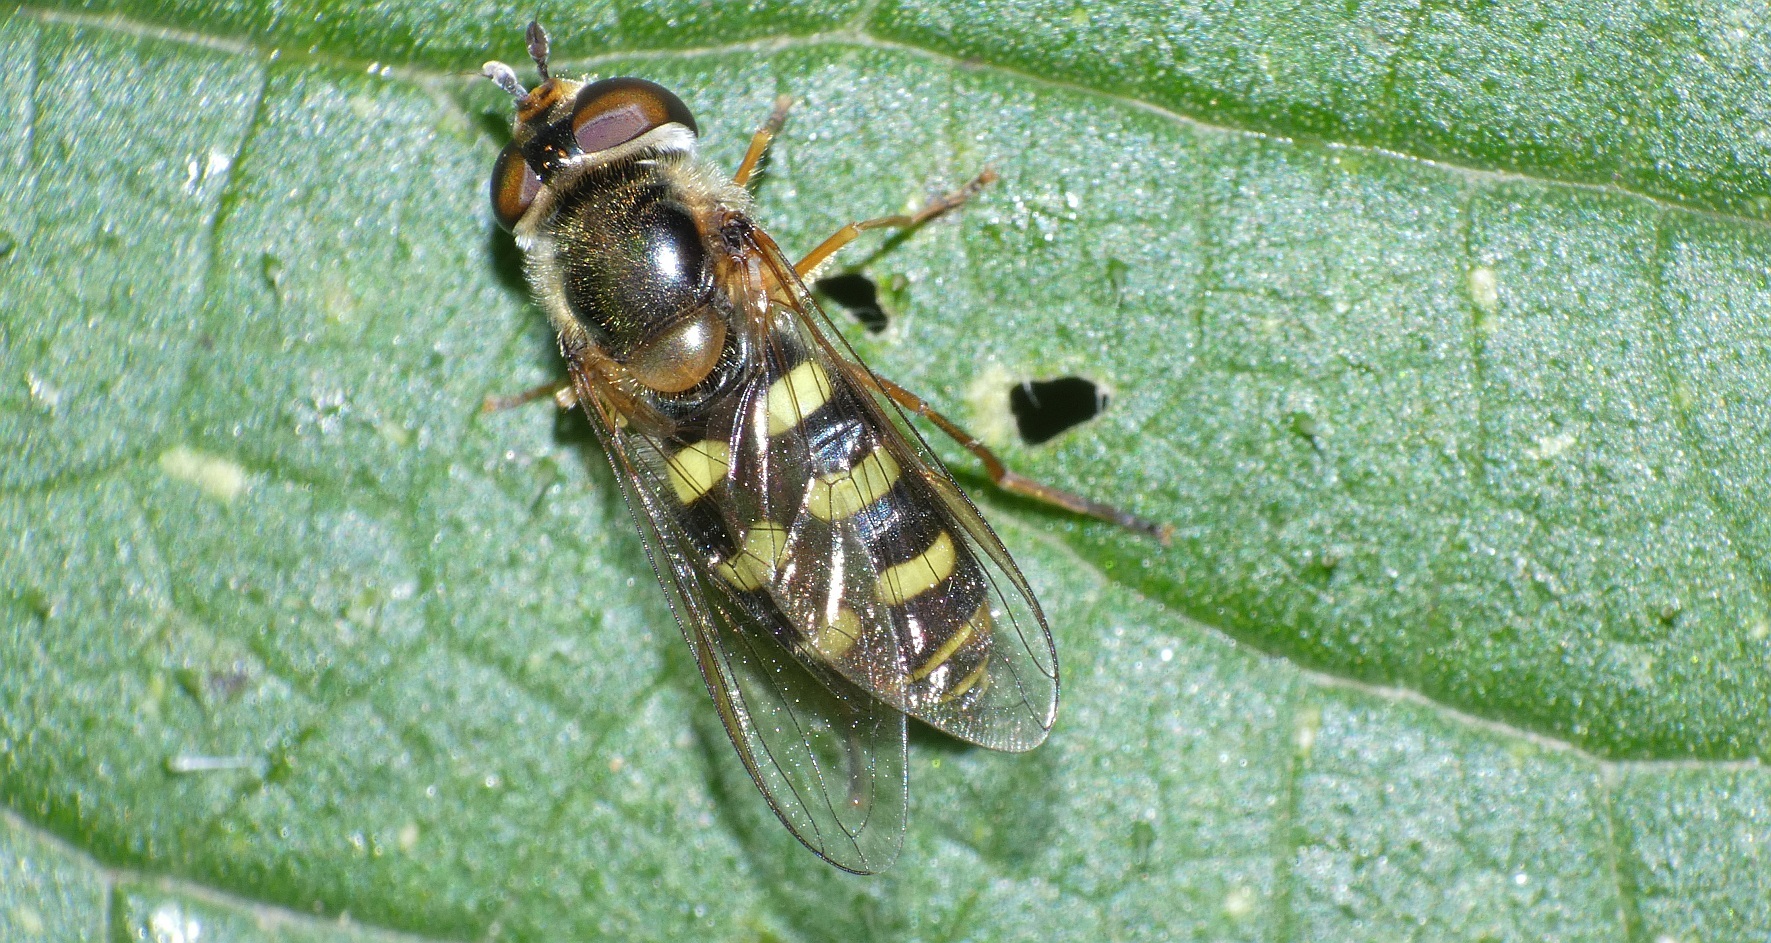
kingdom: Animalia
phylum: Arthropoda
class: Insecta
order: Diptera
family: Syrphidae
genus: Eupeodes
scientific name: Eupeodes luniger
